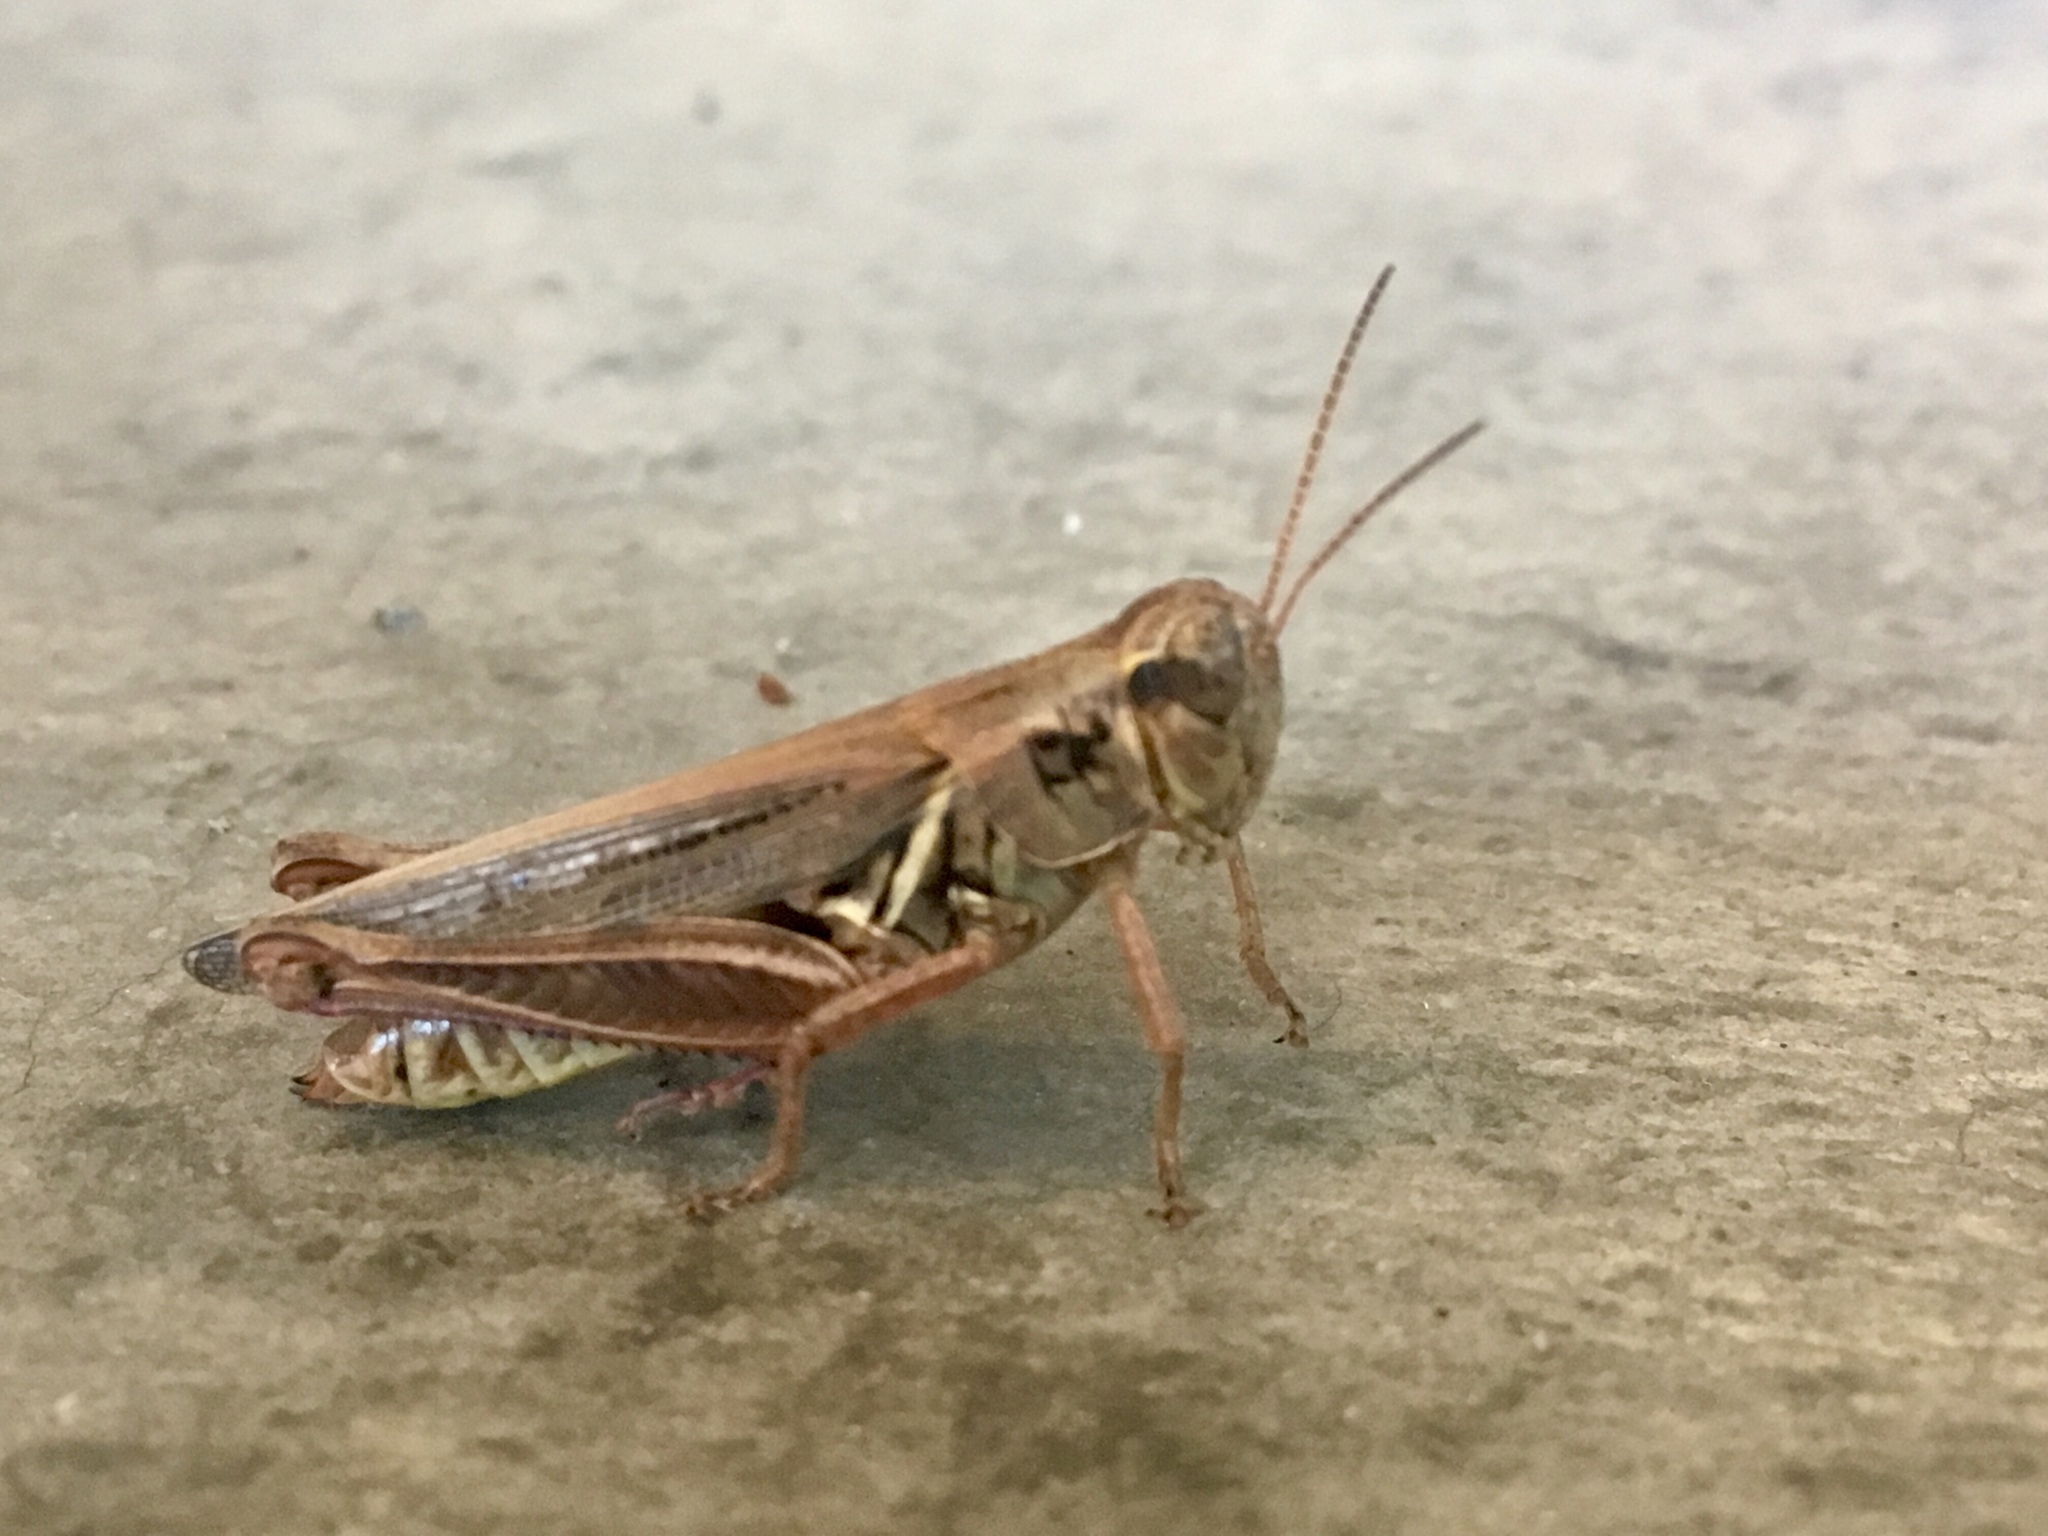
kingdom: Animalia
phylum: Arthropoda
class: Insecta
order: Orthoptera
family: Acrididae
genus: Melanoplus
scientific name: Melanoplus femurrubrum
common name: Red-legged grasshopper
